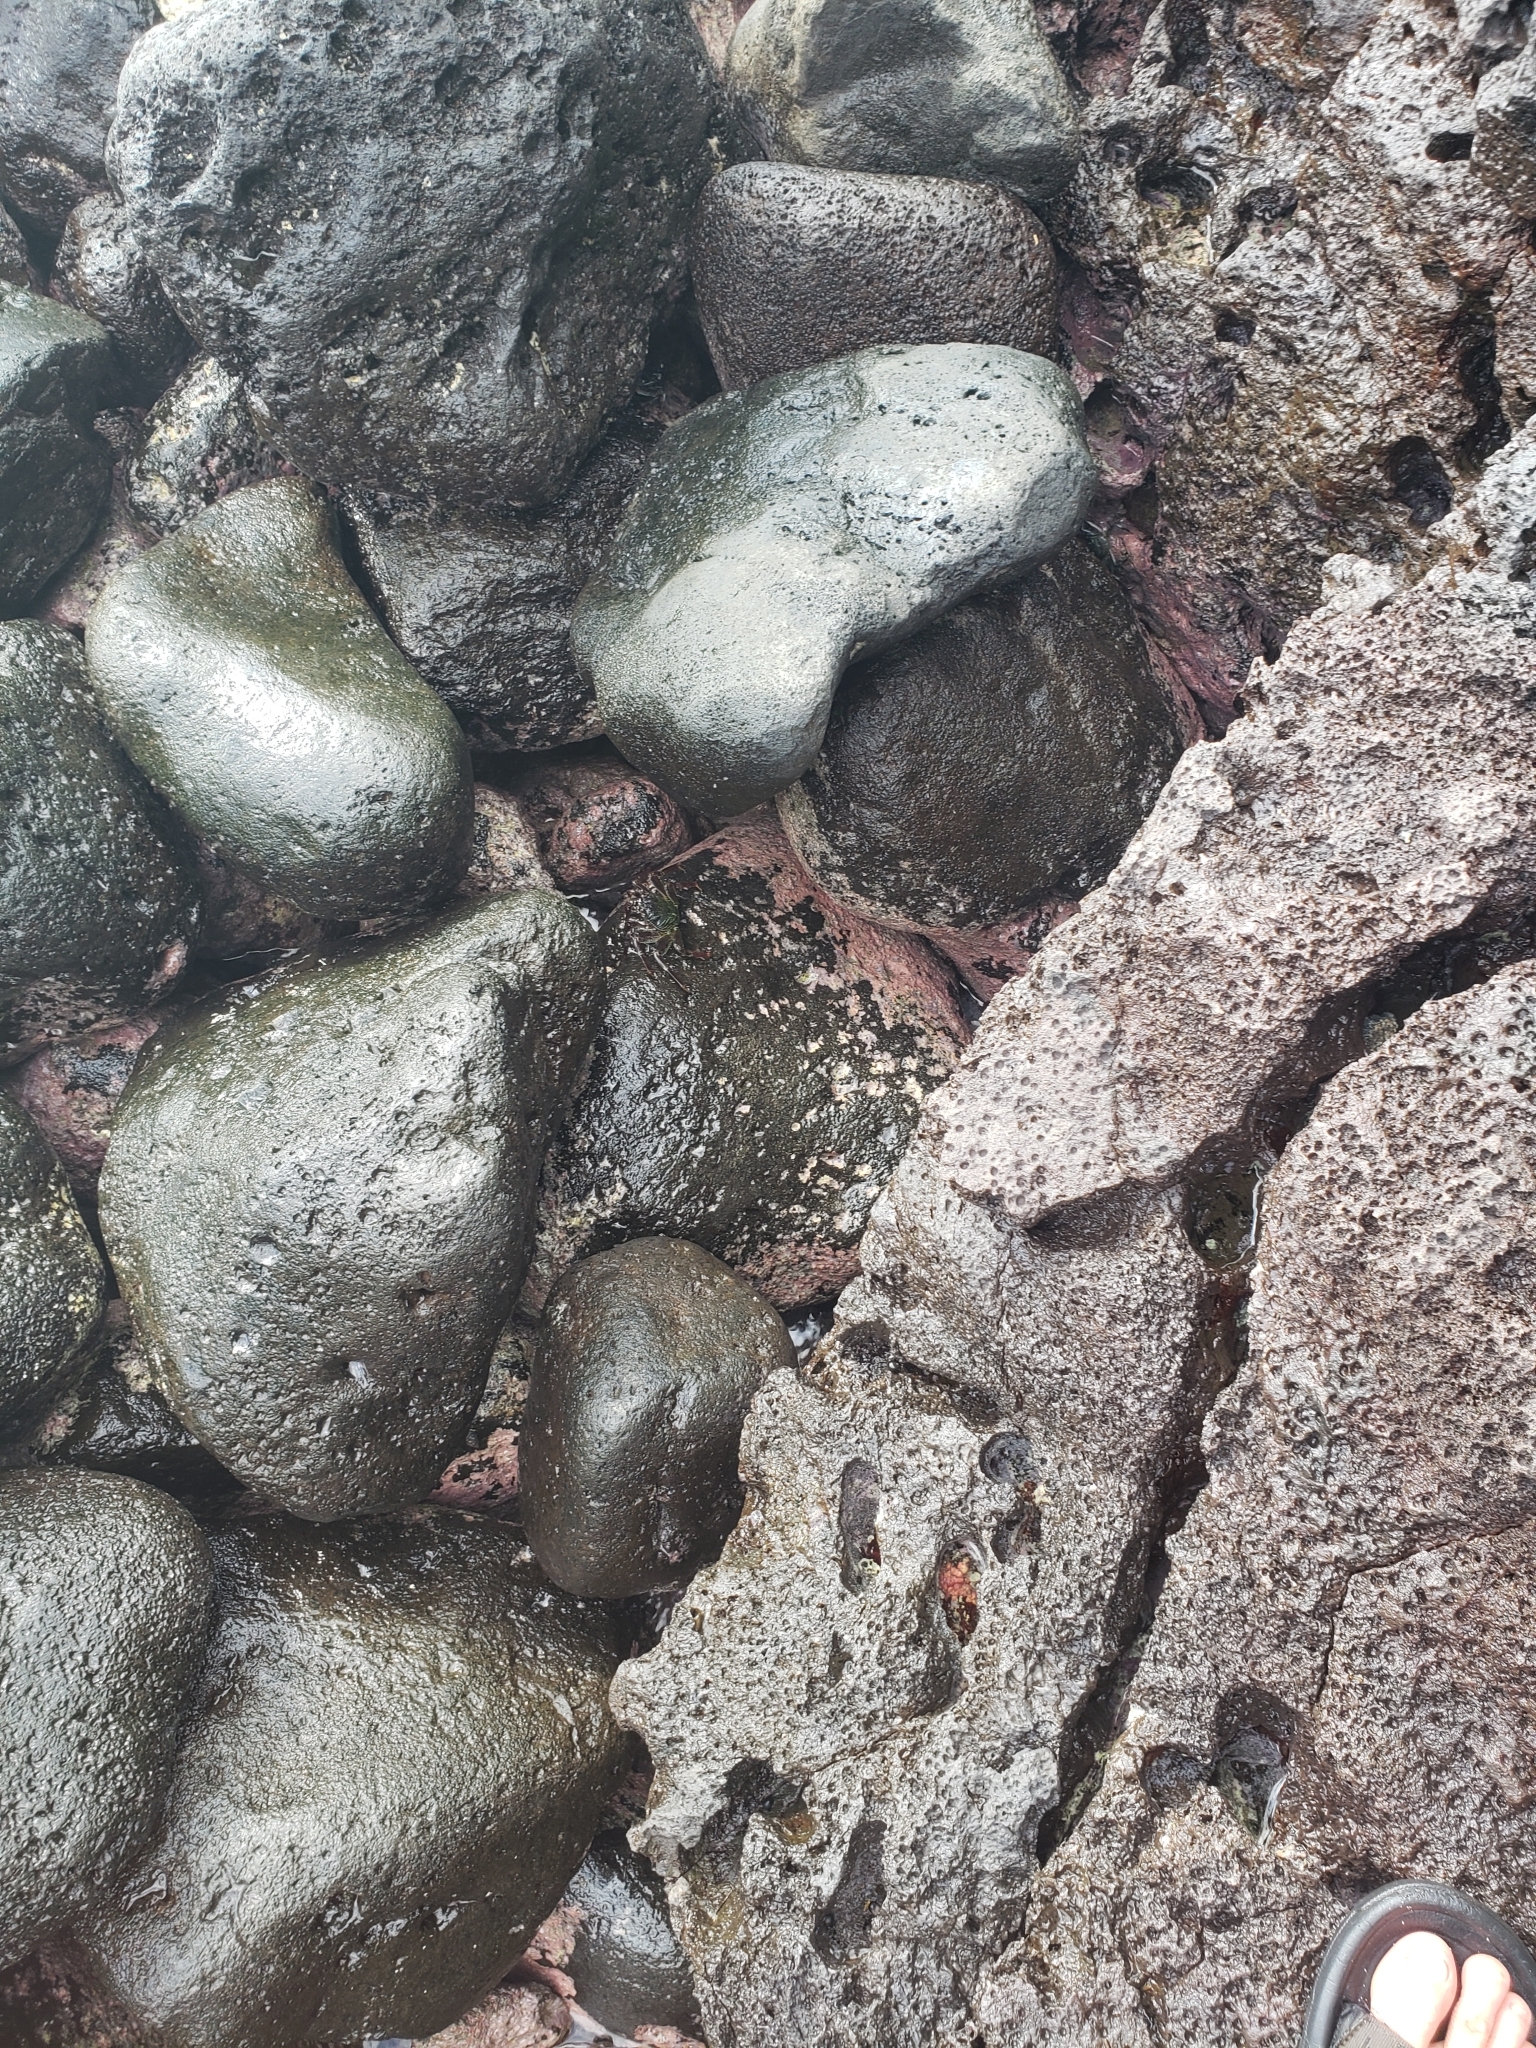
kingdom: Animalia
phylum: Arthropoda
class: Malacostraca
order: Decapoda
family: Grapsidae
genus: Grapsus
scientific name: Grapsus tenuicrustatus
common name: Natal lightfoot crab
